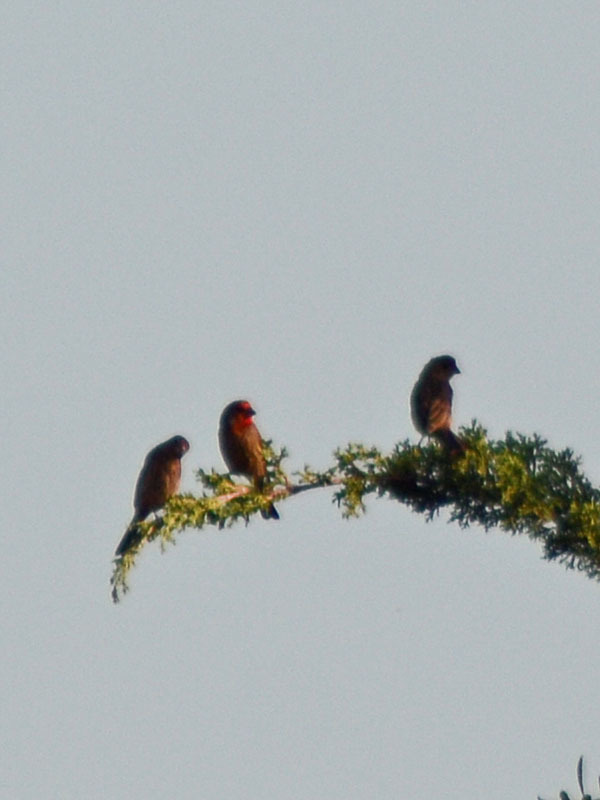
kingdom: Animalia
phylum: Chordata
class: Aves
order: Passeriformes
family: Fringillidae
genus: Haemorhous
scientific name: Haemorhous mexicanus
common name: House finch
